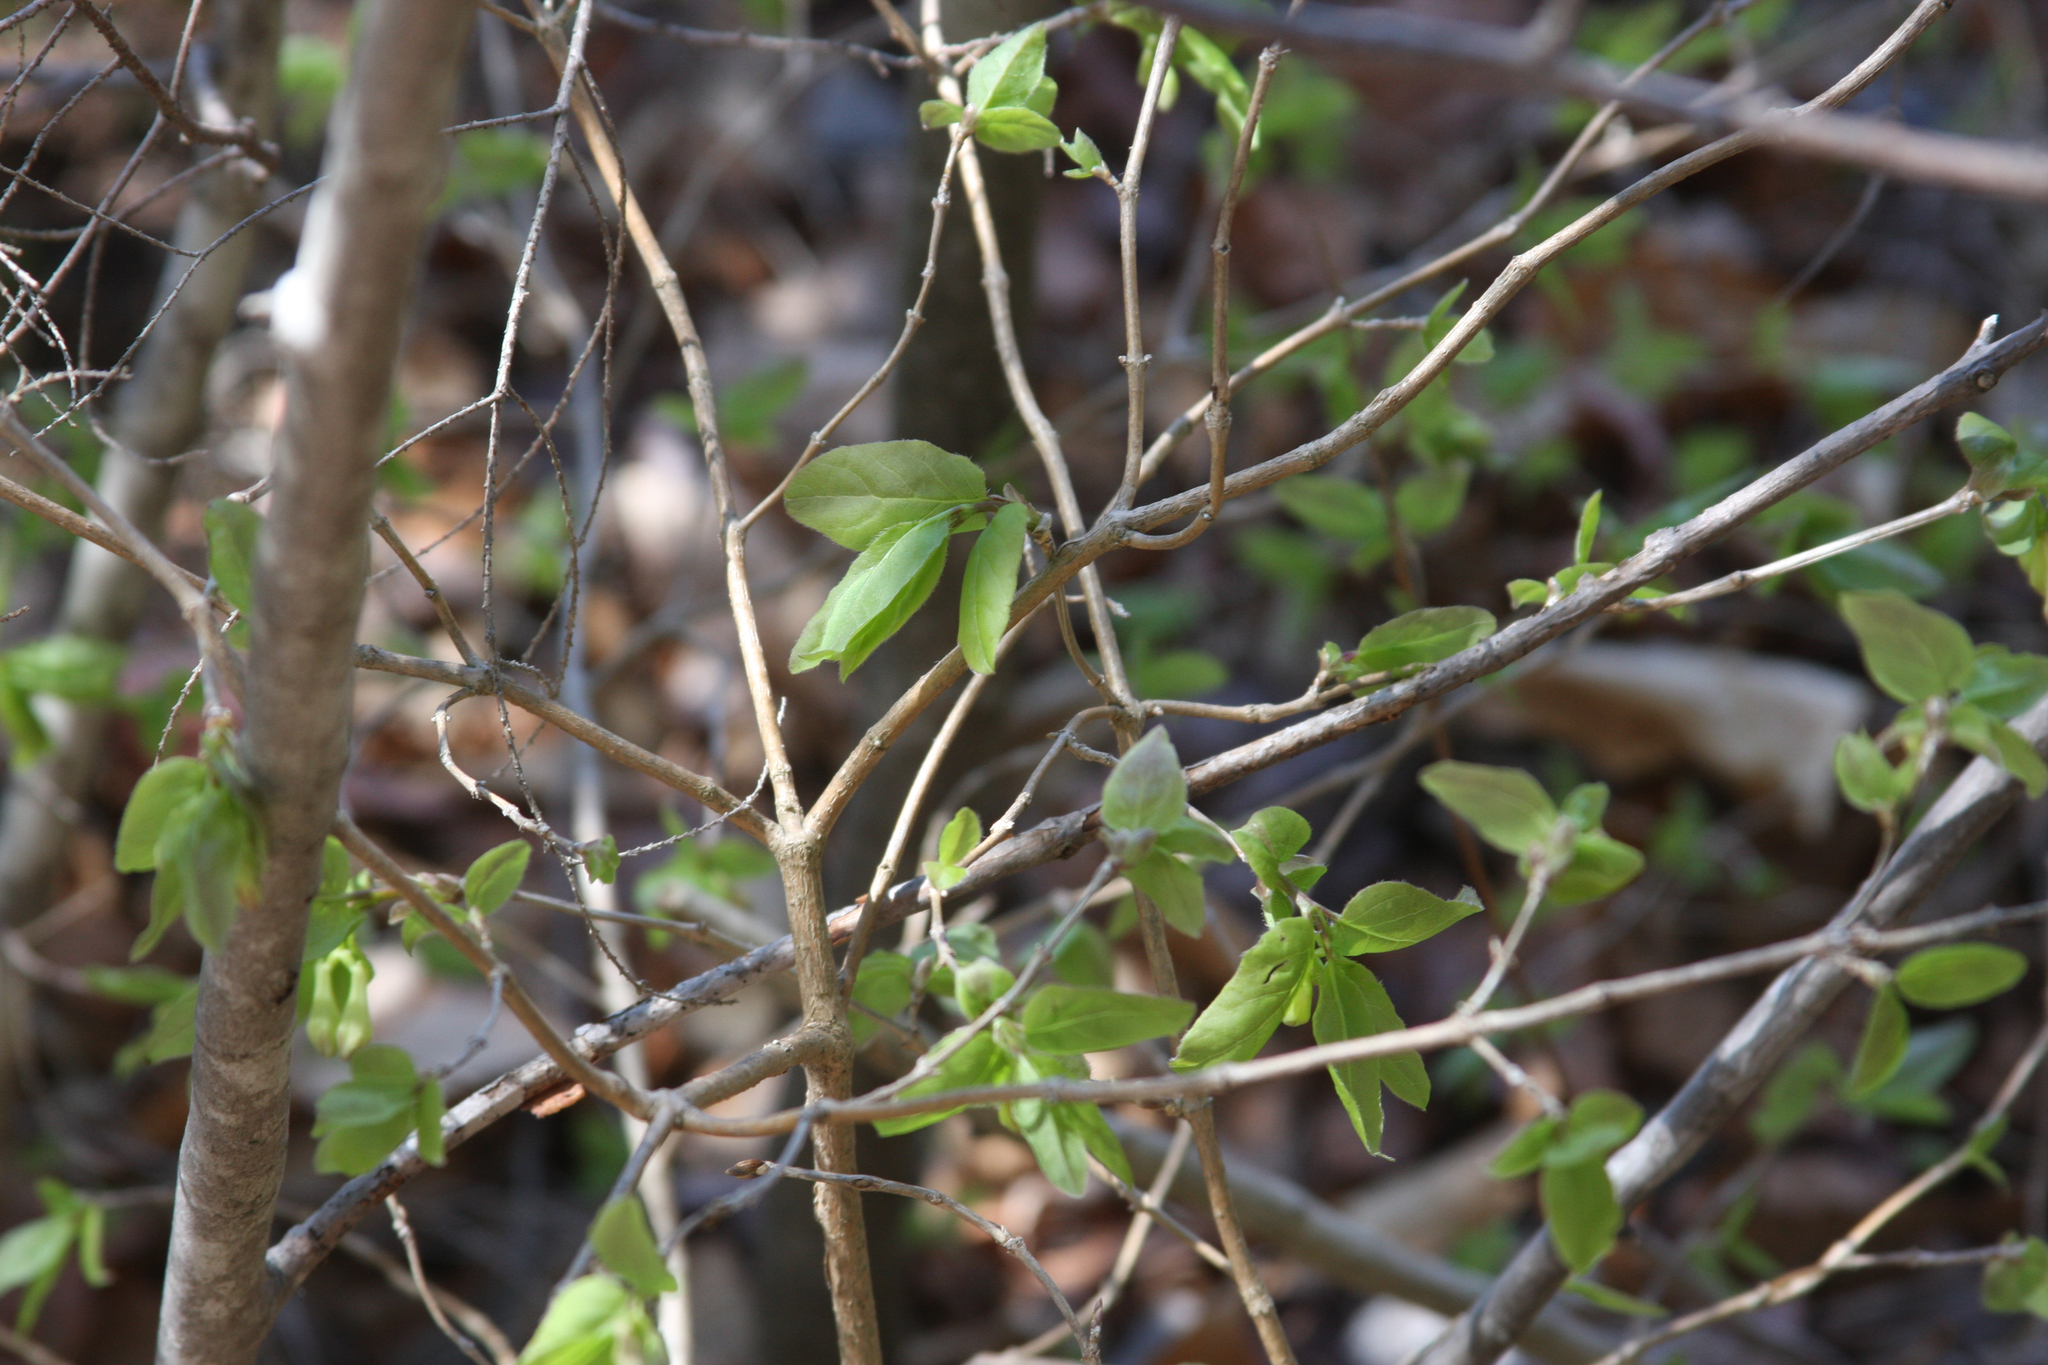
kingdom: Plantae
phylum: Tracheophyta
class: Magnoliopsida
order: Dipsacales
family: Caprifoliaceae
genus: Lonicera
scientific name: Lonicera canadensis
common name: American fly-honeysuckle
